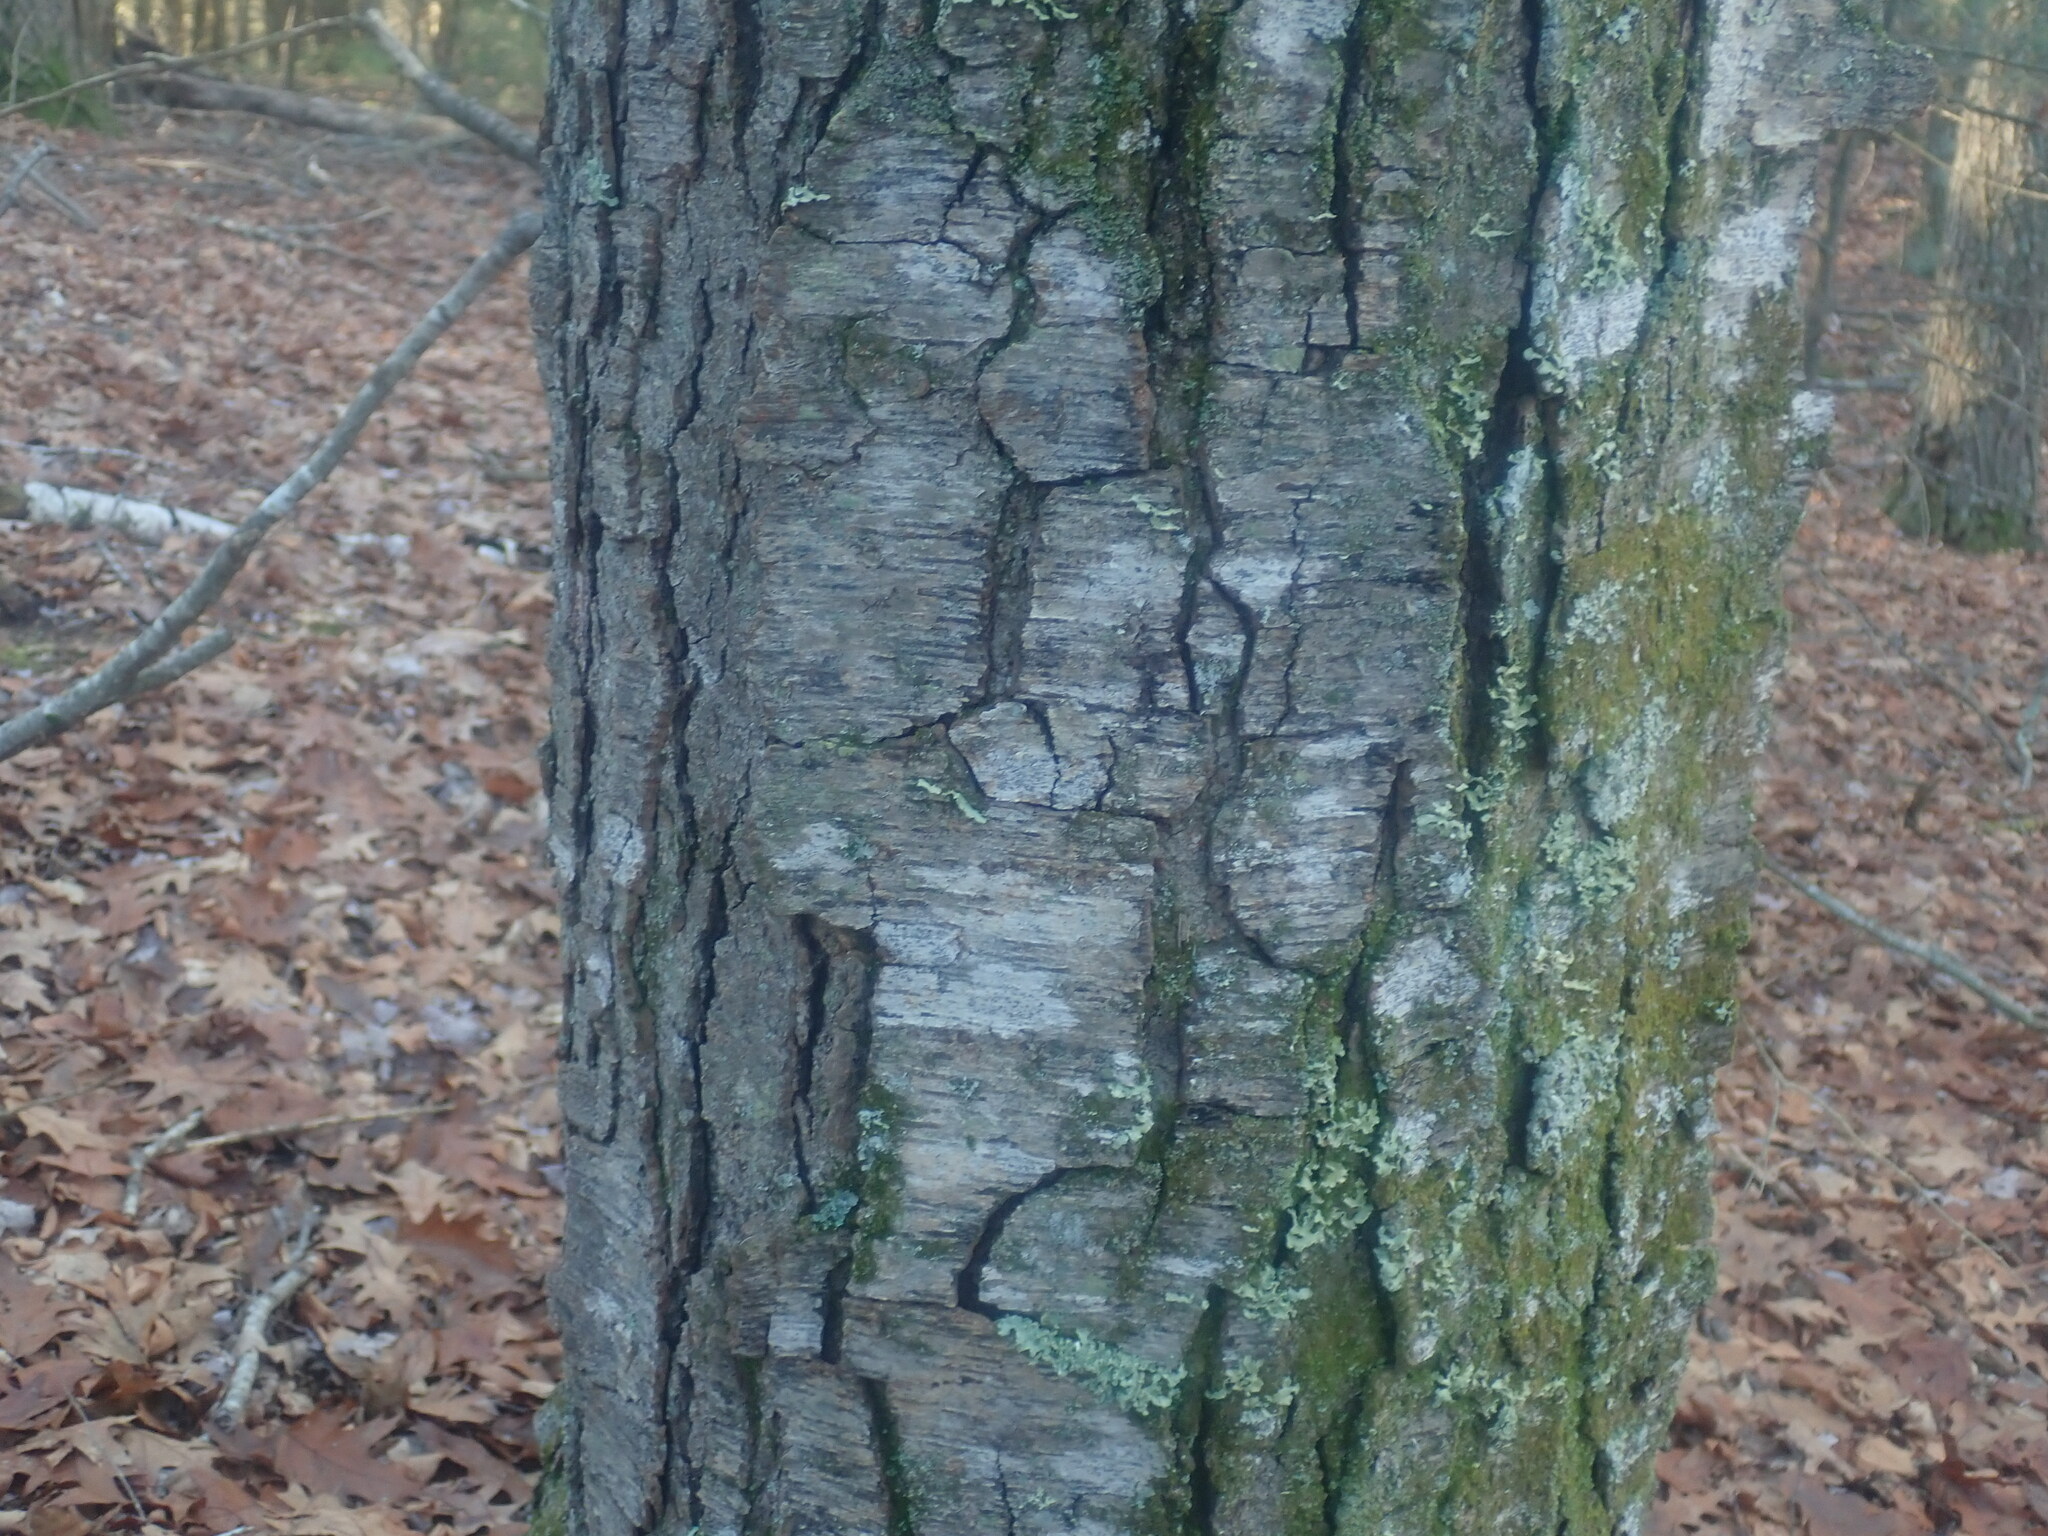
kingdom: Plantae
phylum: Tracheophyta
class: Magnoliopsida
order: Fagales
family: Betulaceae
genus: Betula
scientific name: Betula lenta
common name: Black birch
